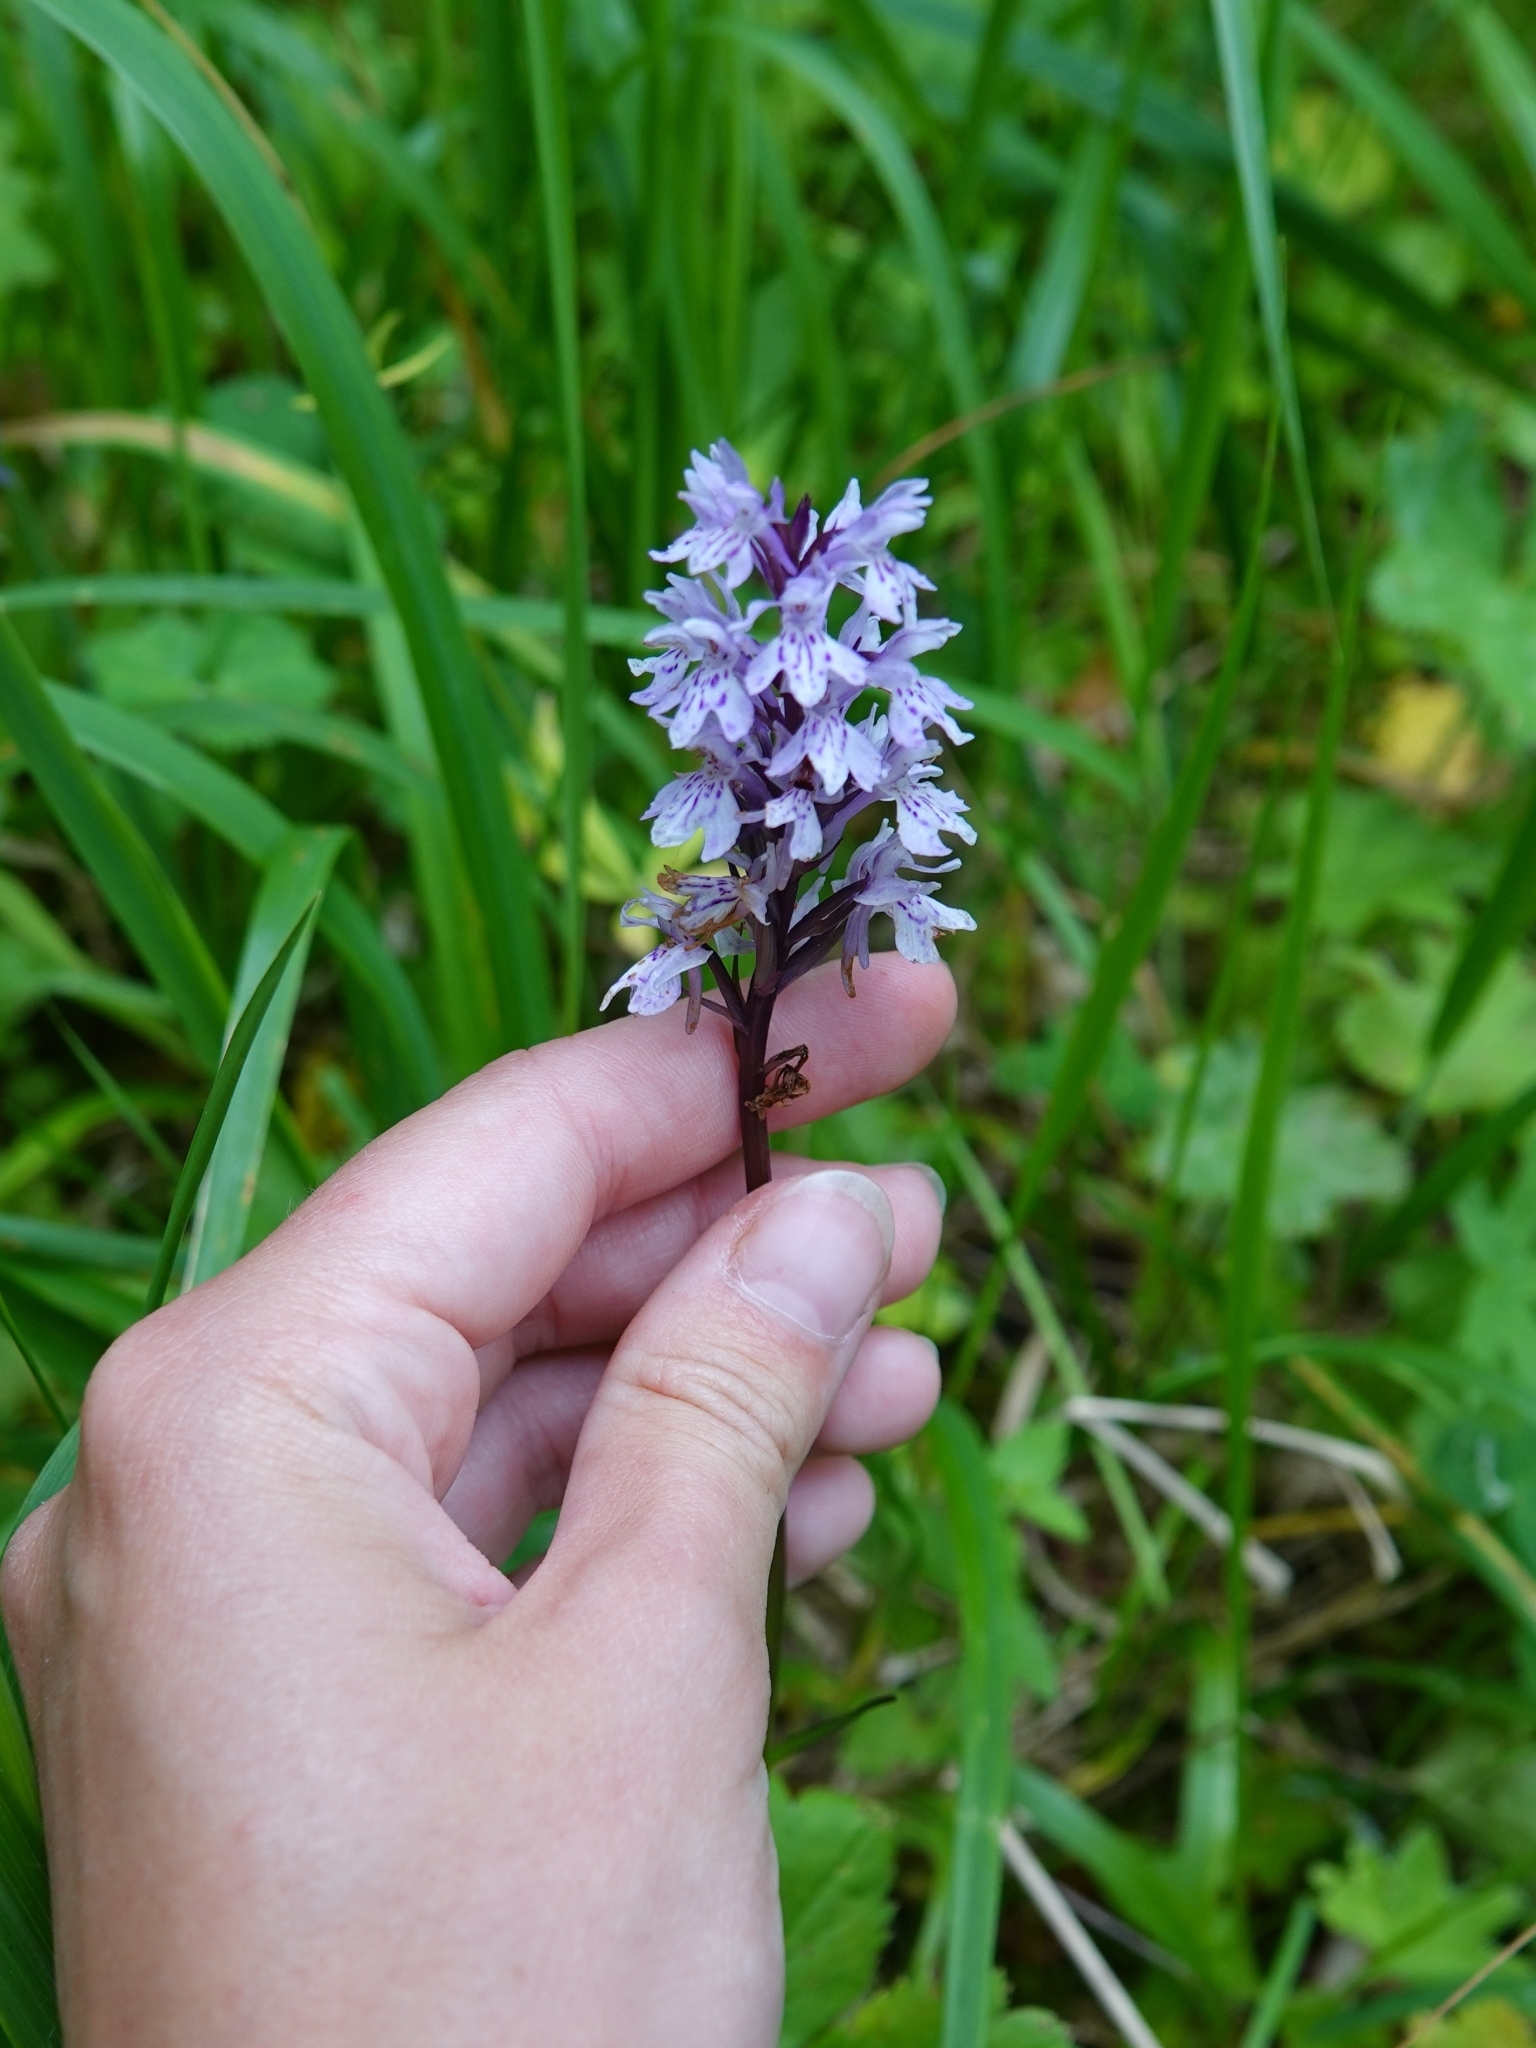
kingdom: Plantae
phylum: Tracheophyta
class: Liliopsida
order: Asparagales
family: Orchidaceae
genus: Dactylorhiza
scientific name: Dactylorhiza maculata
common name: Heath spotted-orchid
